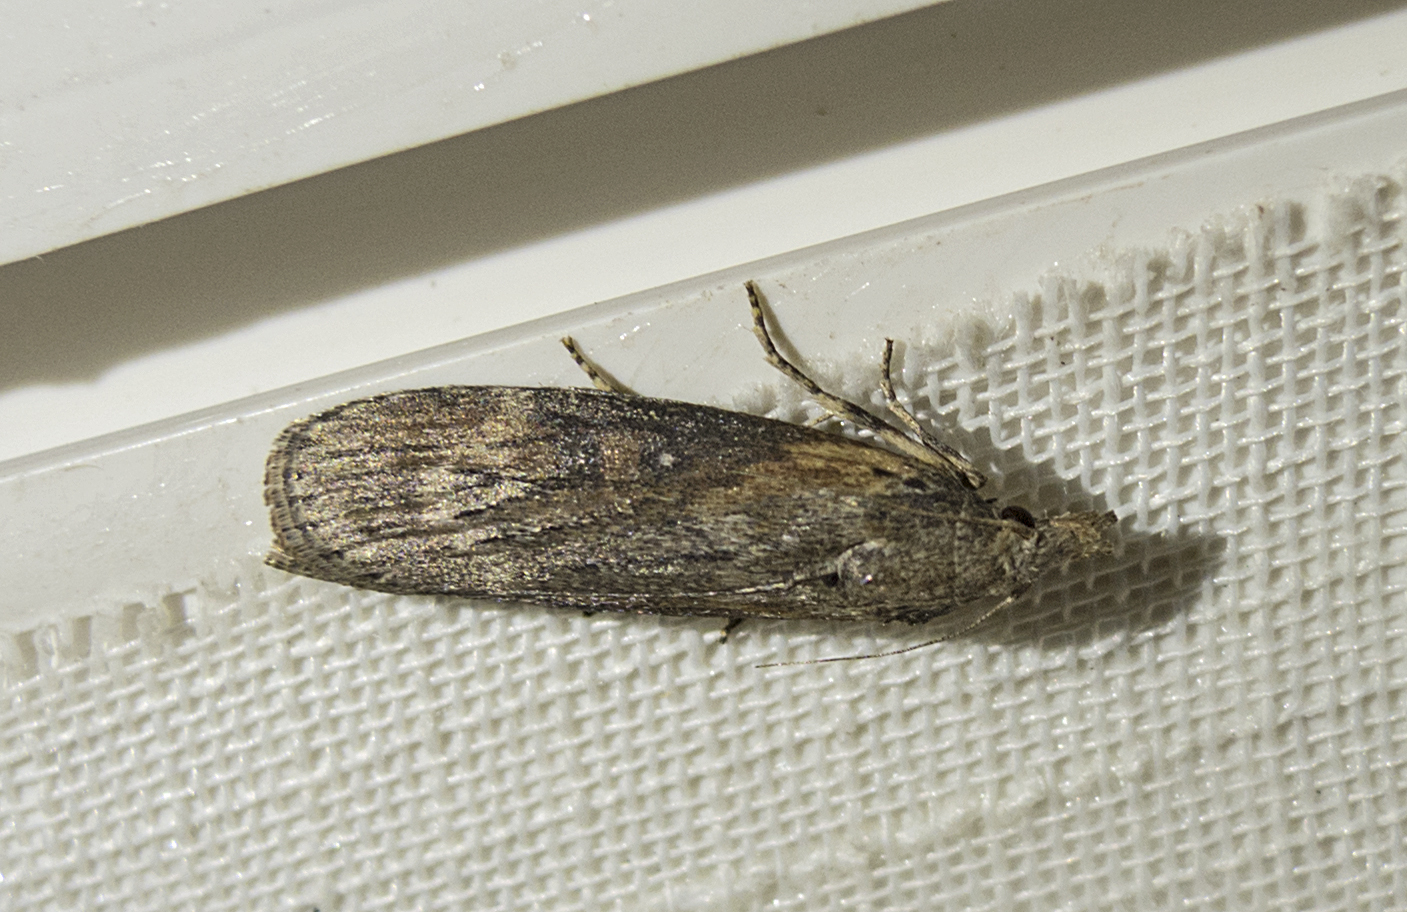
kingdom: Animalia
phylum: Arthropoda
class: Insecta
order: Lepidoptera
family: Pyralidae
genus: Lamoria
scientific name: Lamoria anella
